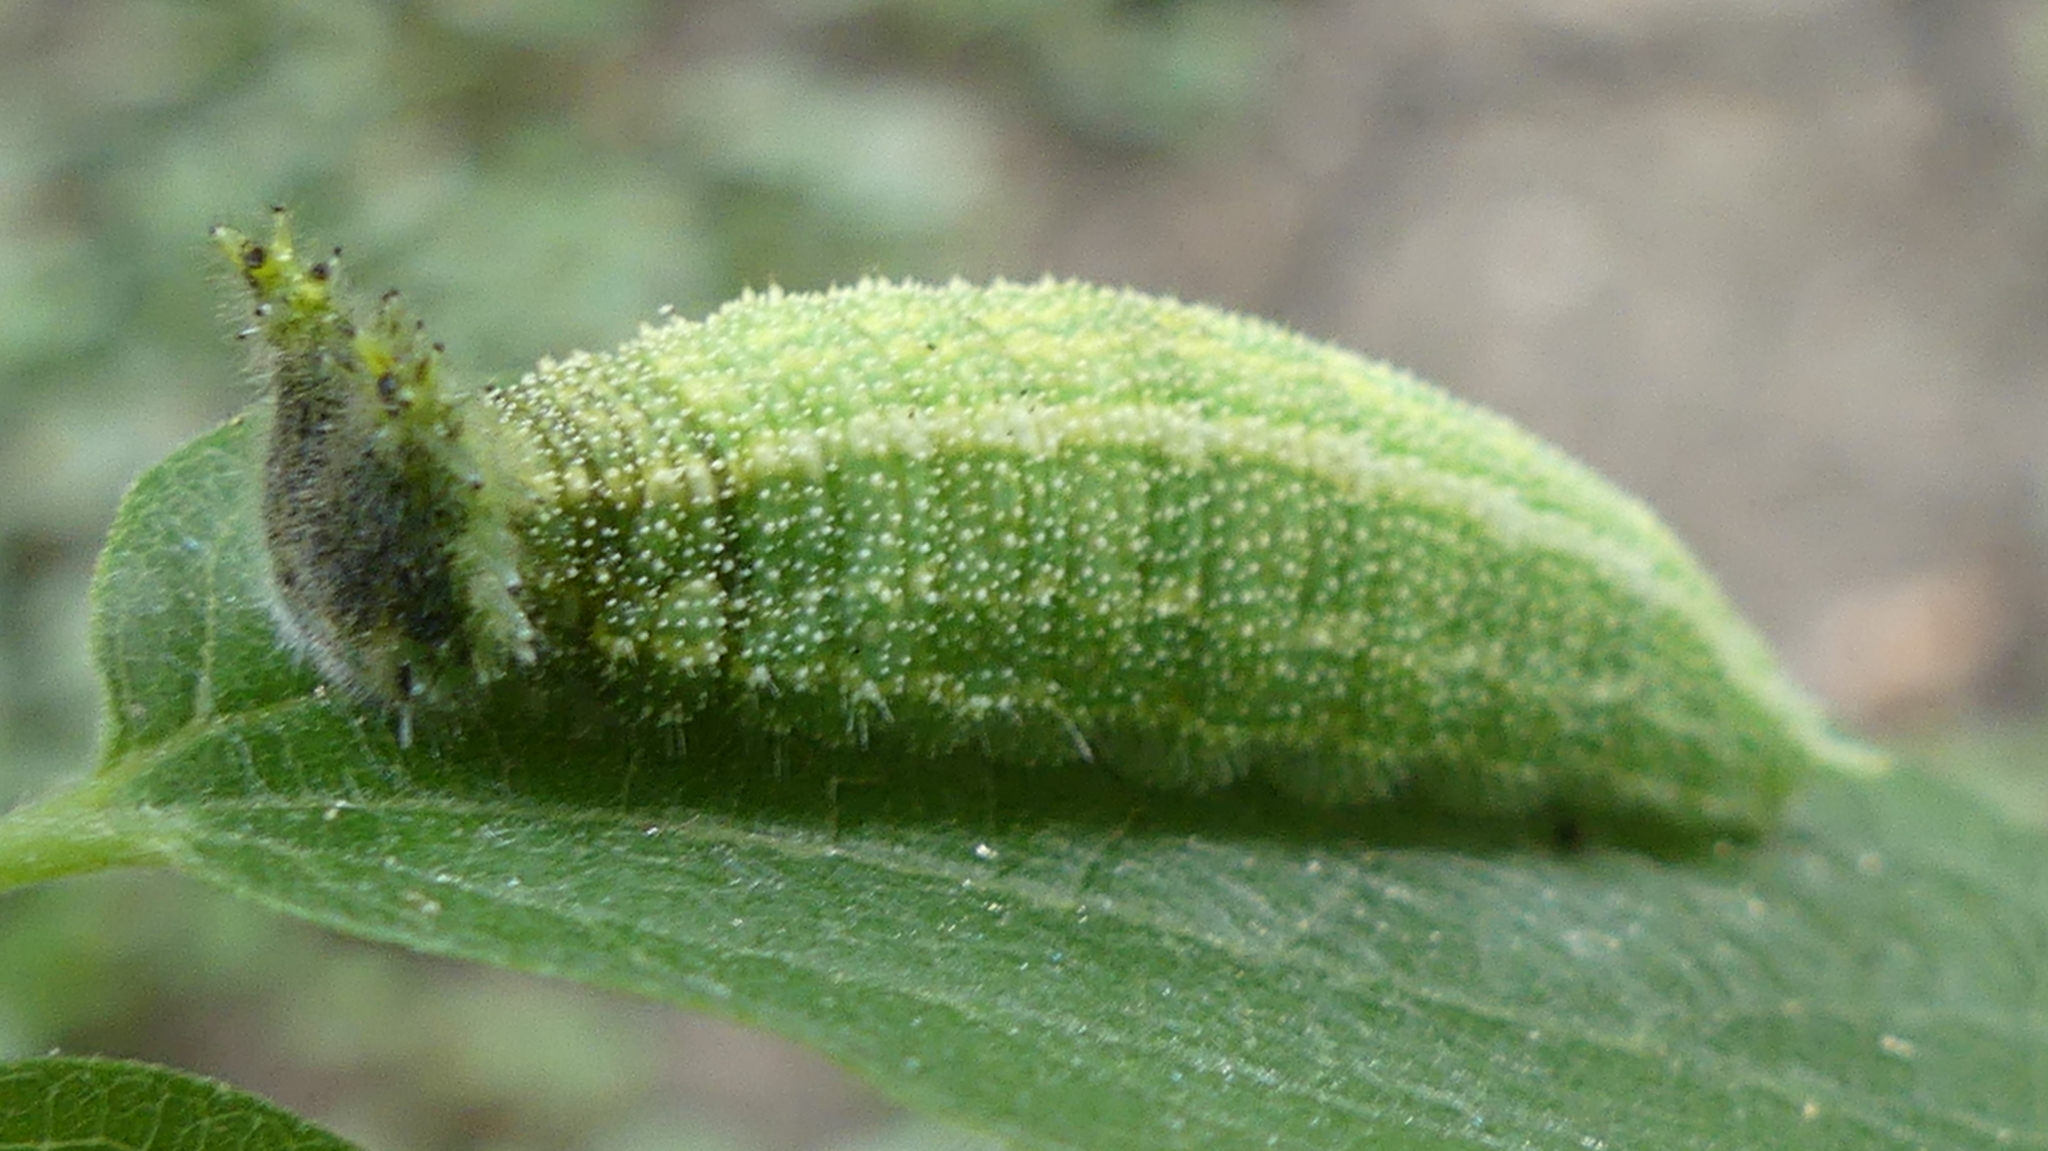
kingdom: Animalia
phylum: Arthropoda
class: Insecta
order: Lepidoptera
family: Nymphalidae
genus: Asterocampa
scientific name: Asterocampa clyton
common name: Tawny emperor
